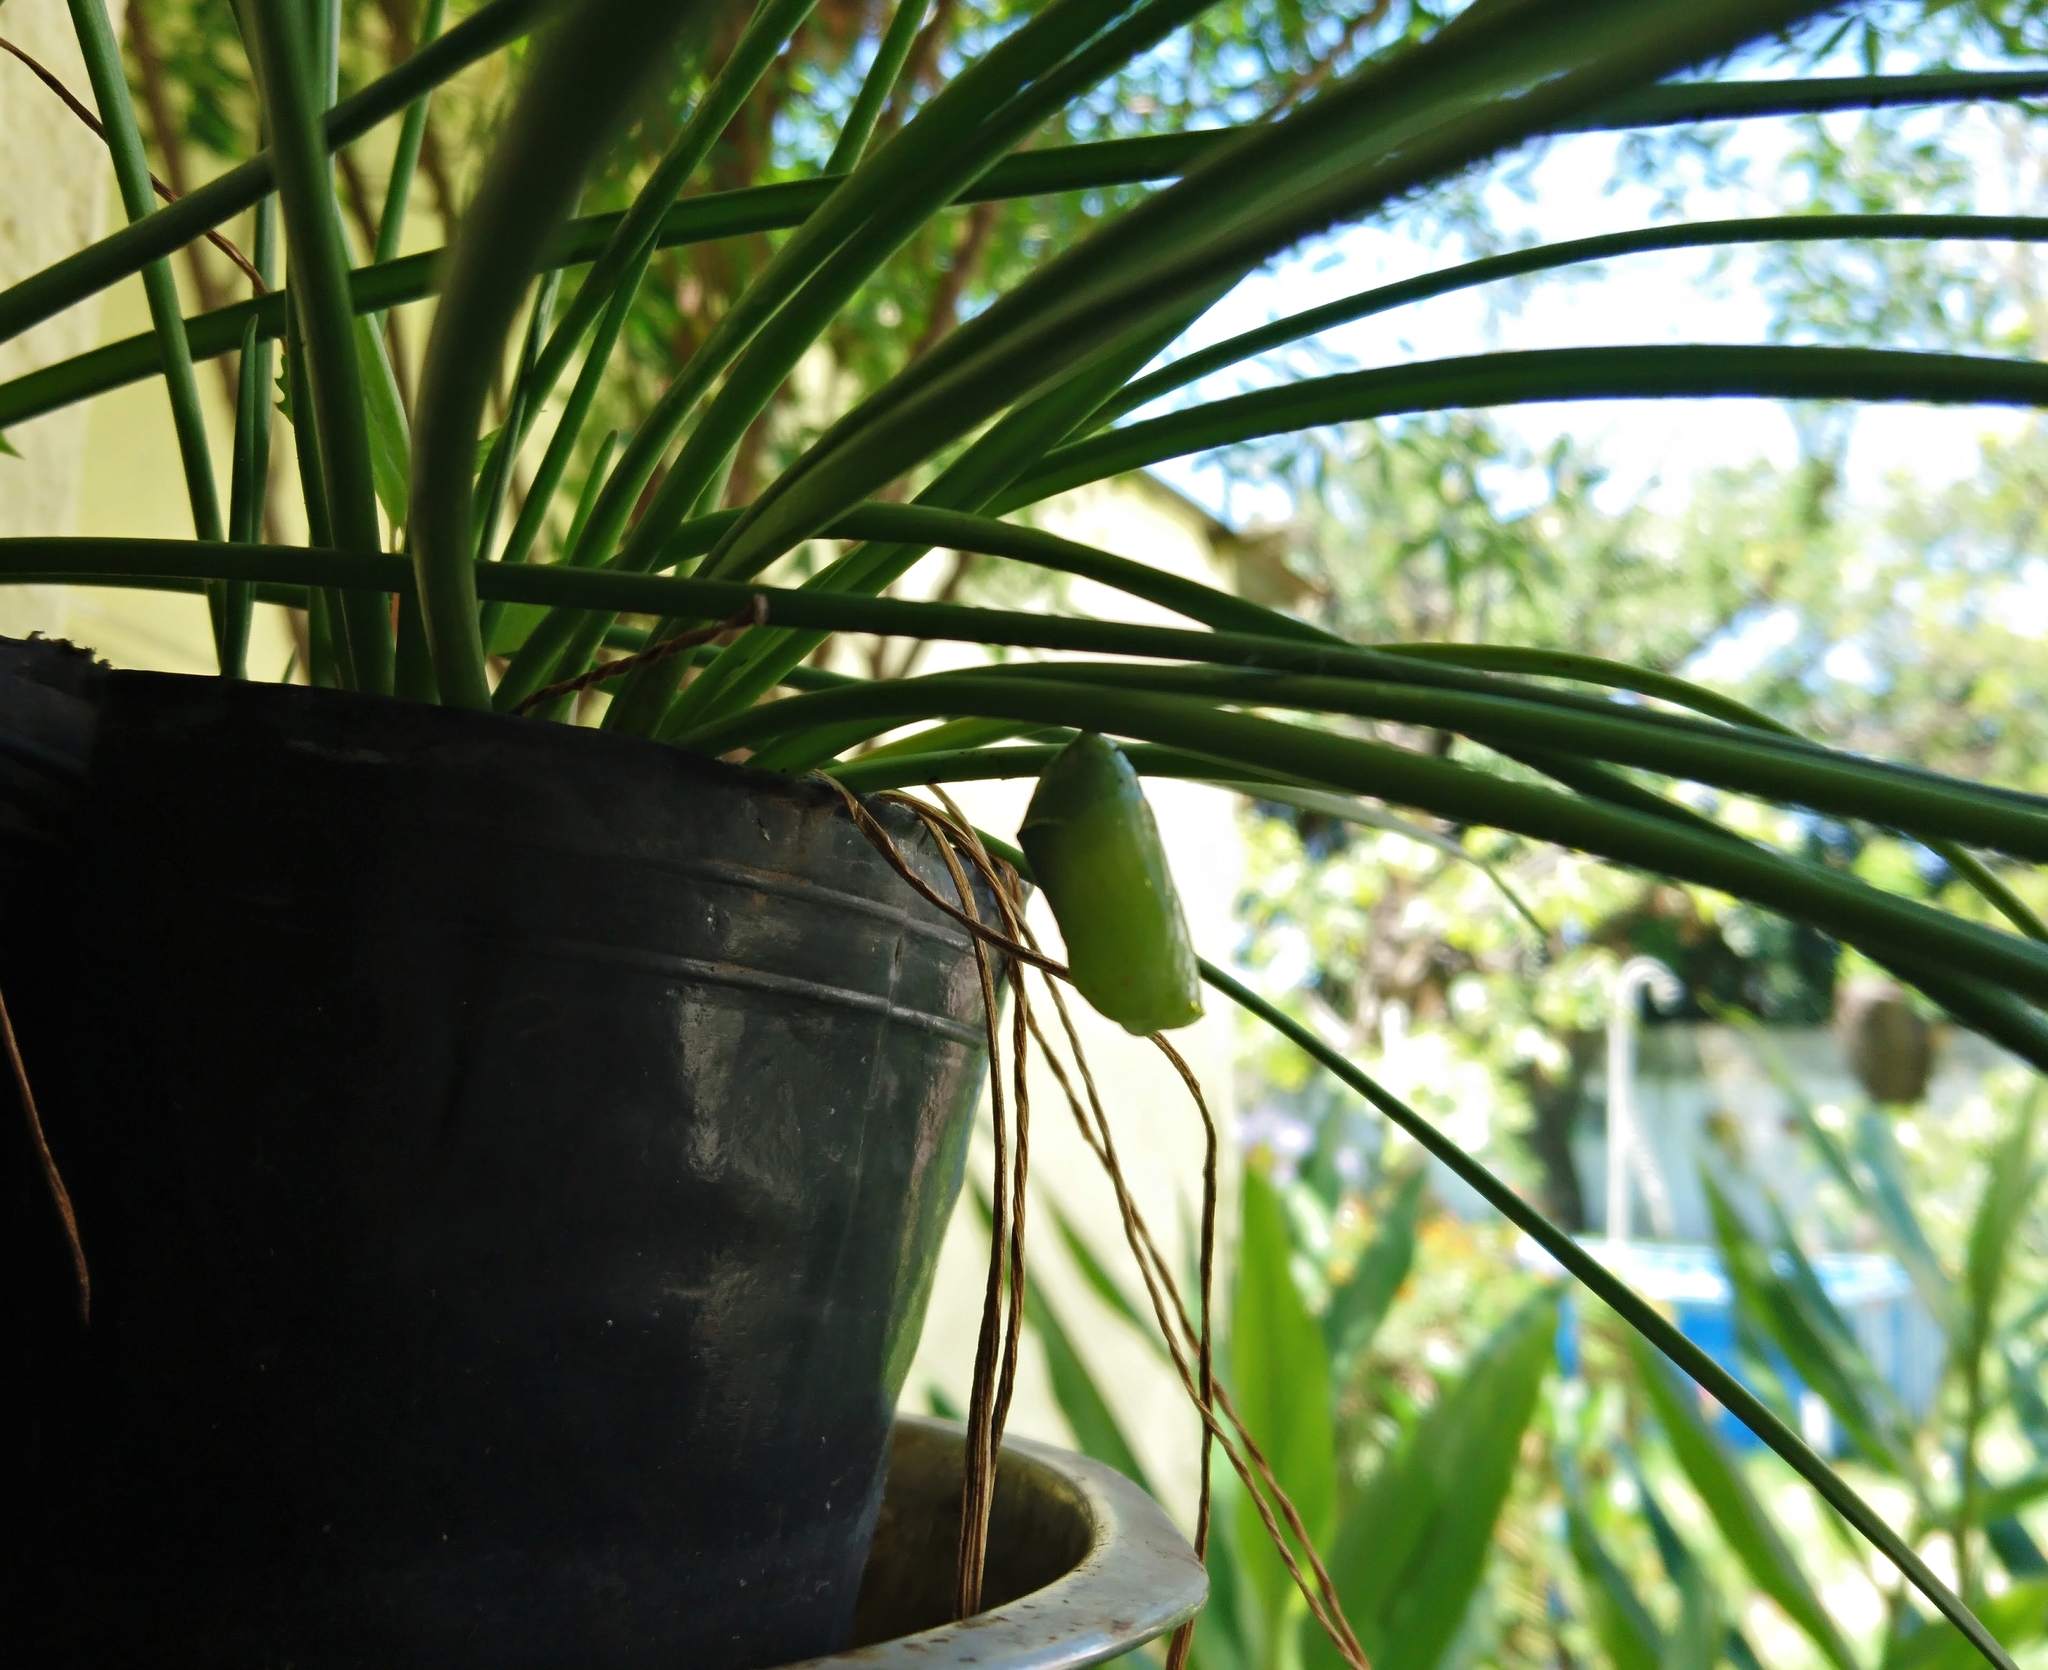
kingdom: Animalia
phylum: Arthropoda
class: Insecta
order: Lepidoptera
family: Nymphalidae
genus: Danaus
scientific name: Danaus erippus
